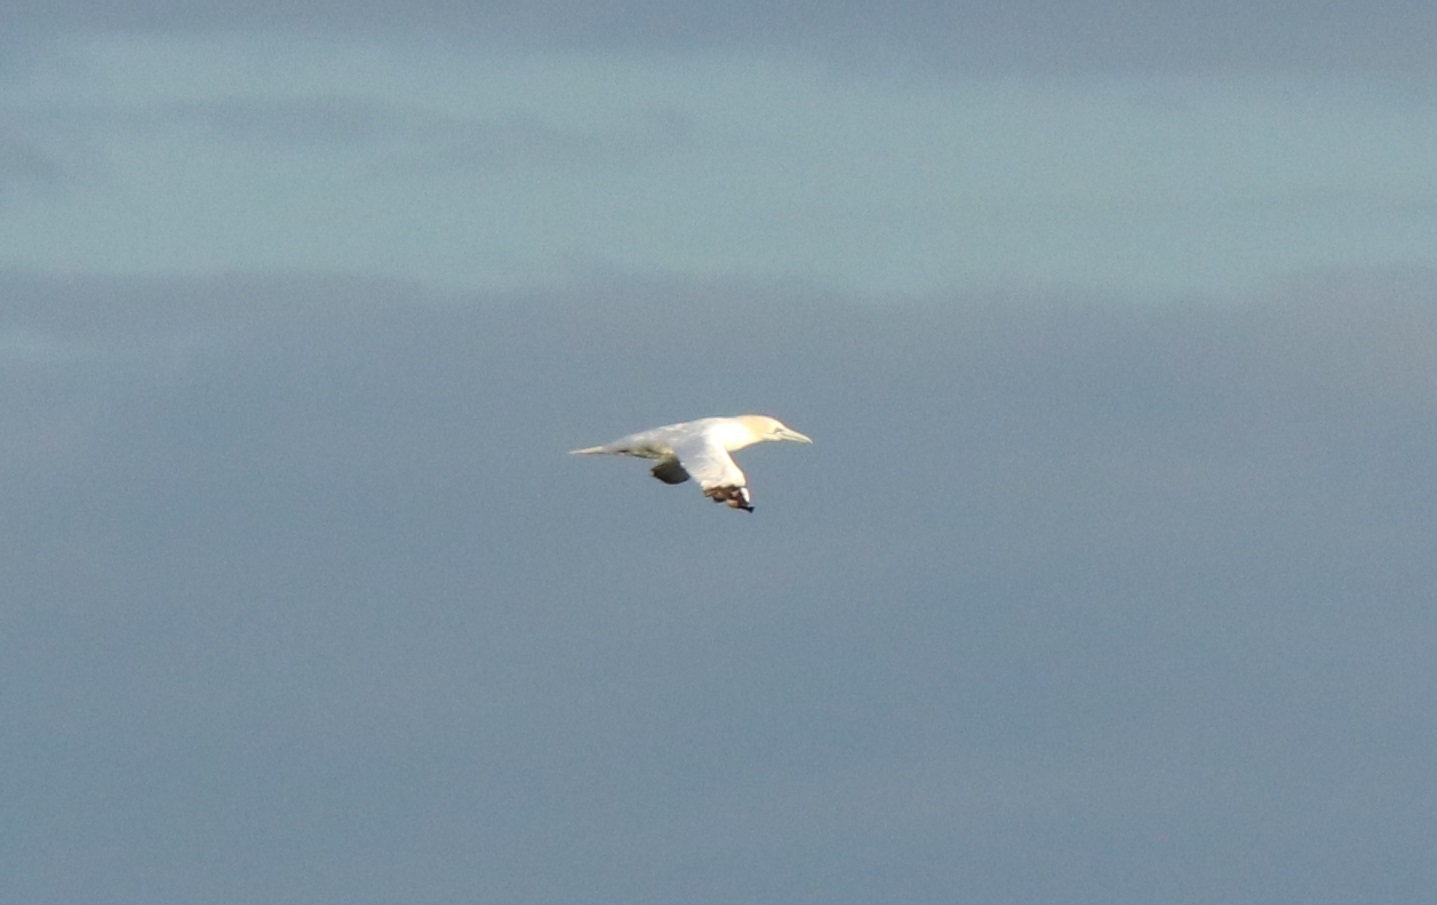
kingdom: Animalia
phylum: Chordata
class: Aves
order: Suliformes
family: Sulidae
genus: Morus
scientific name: Morus bassanus
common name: Northern gannet
